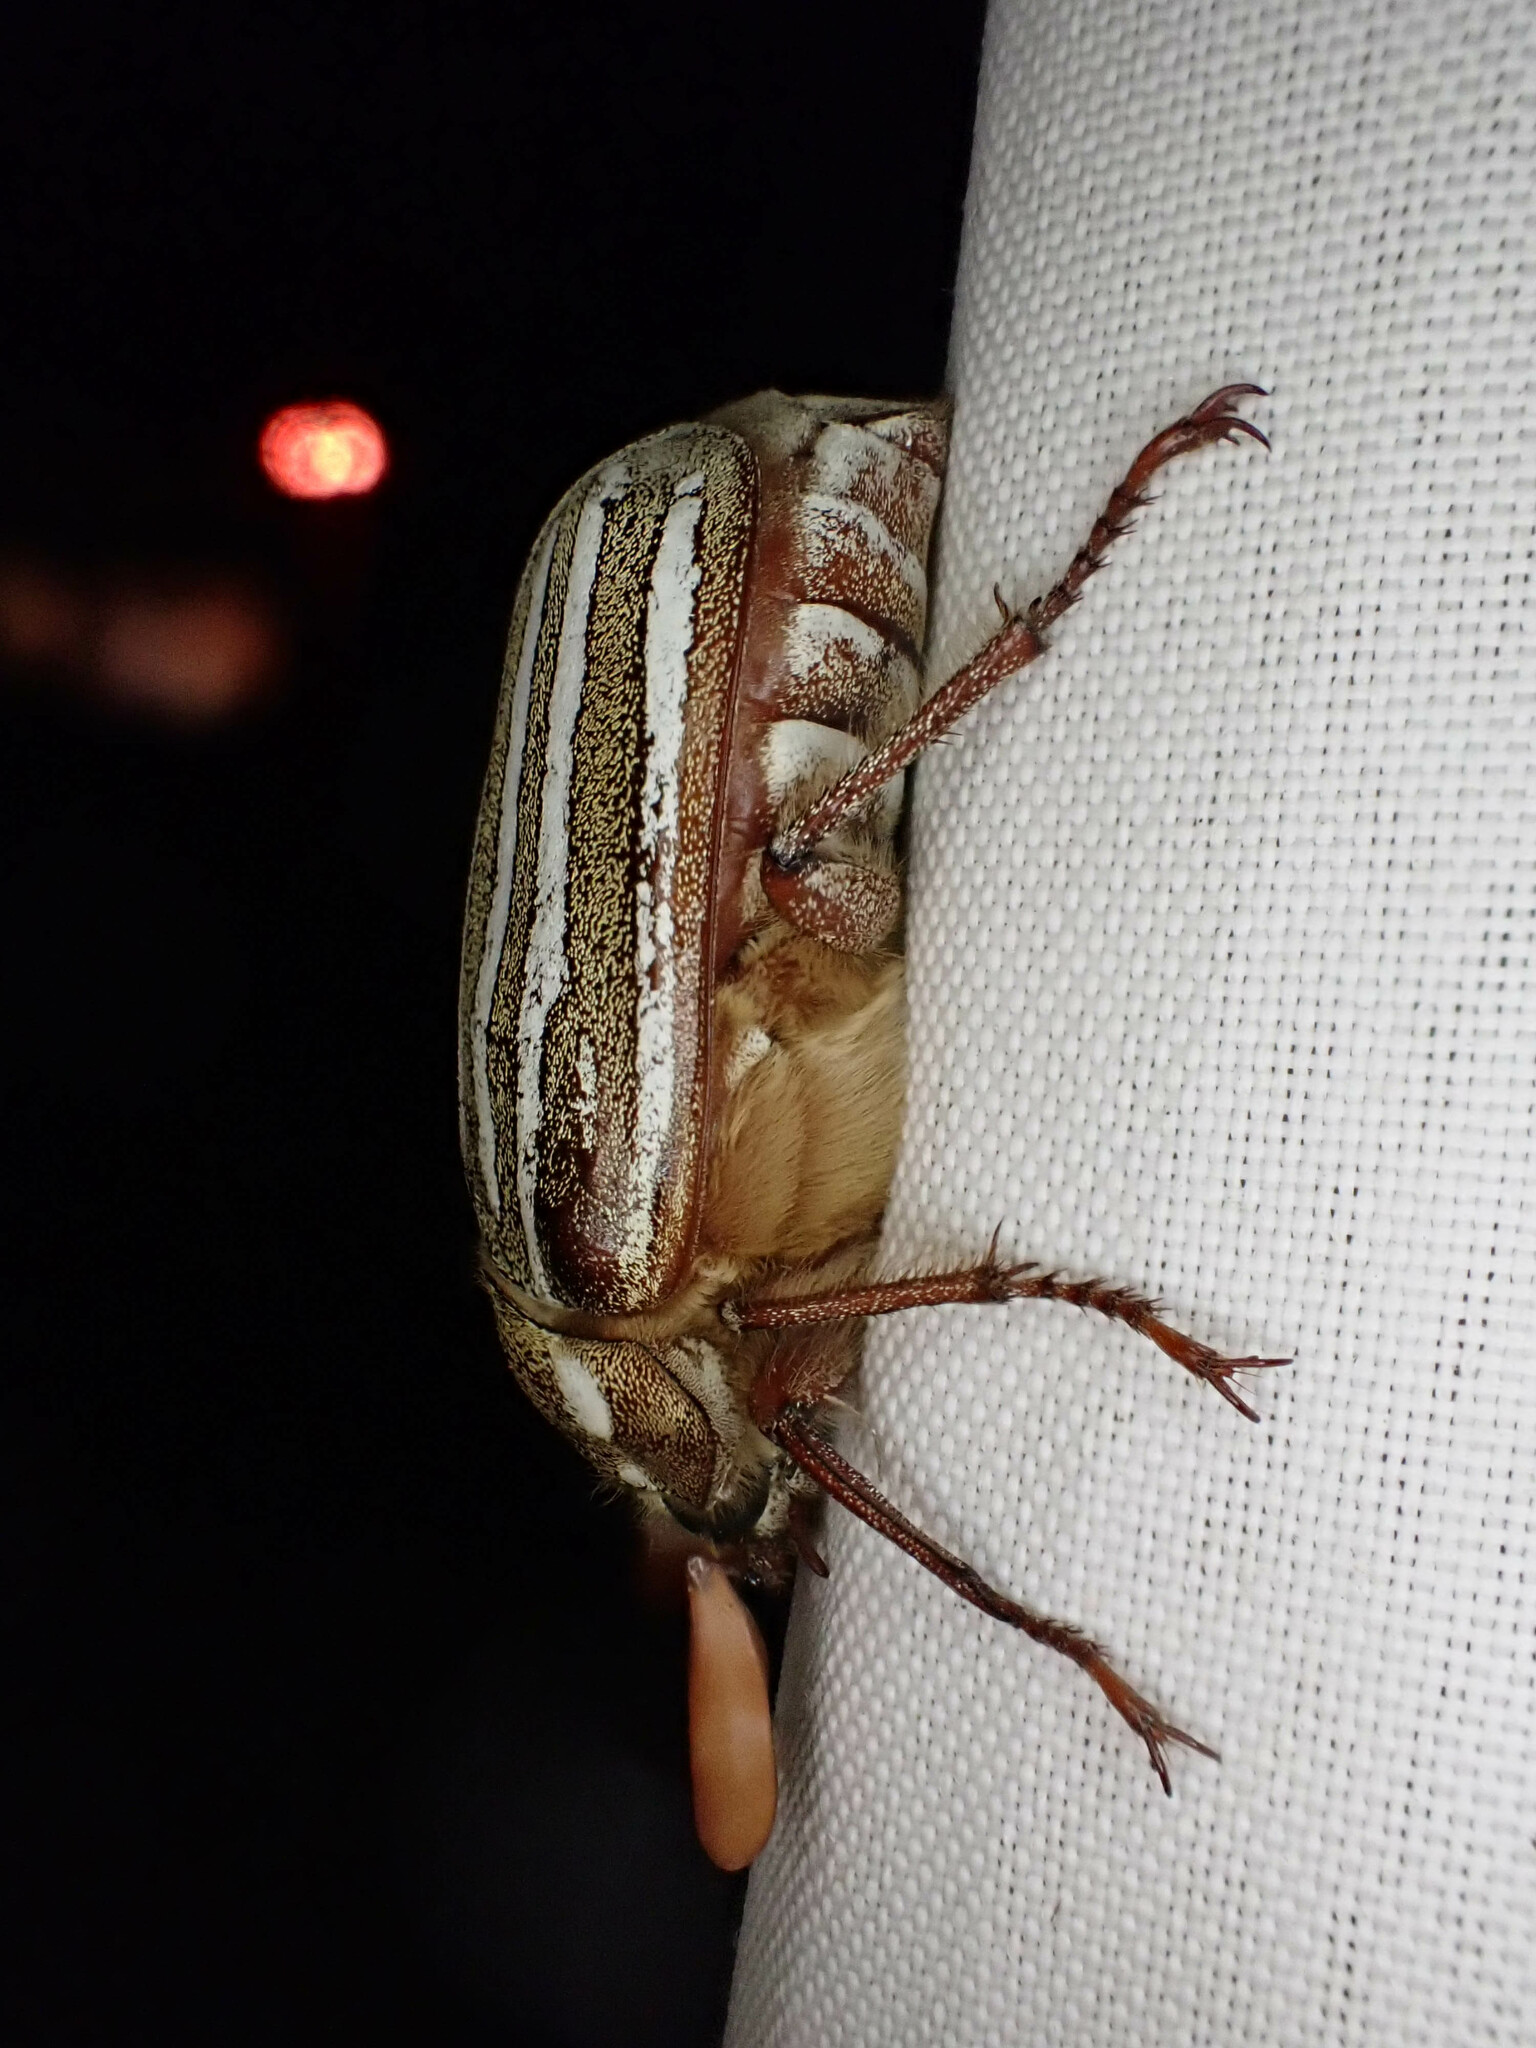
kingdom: Animalia
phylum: Arthropoda
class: Insecta
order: Coleoptera
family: Scarabaeidae
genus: Polyphylla
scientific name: Polyphylla decemlineata
